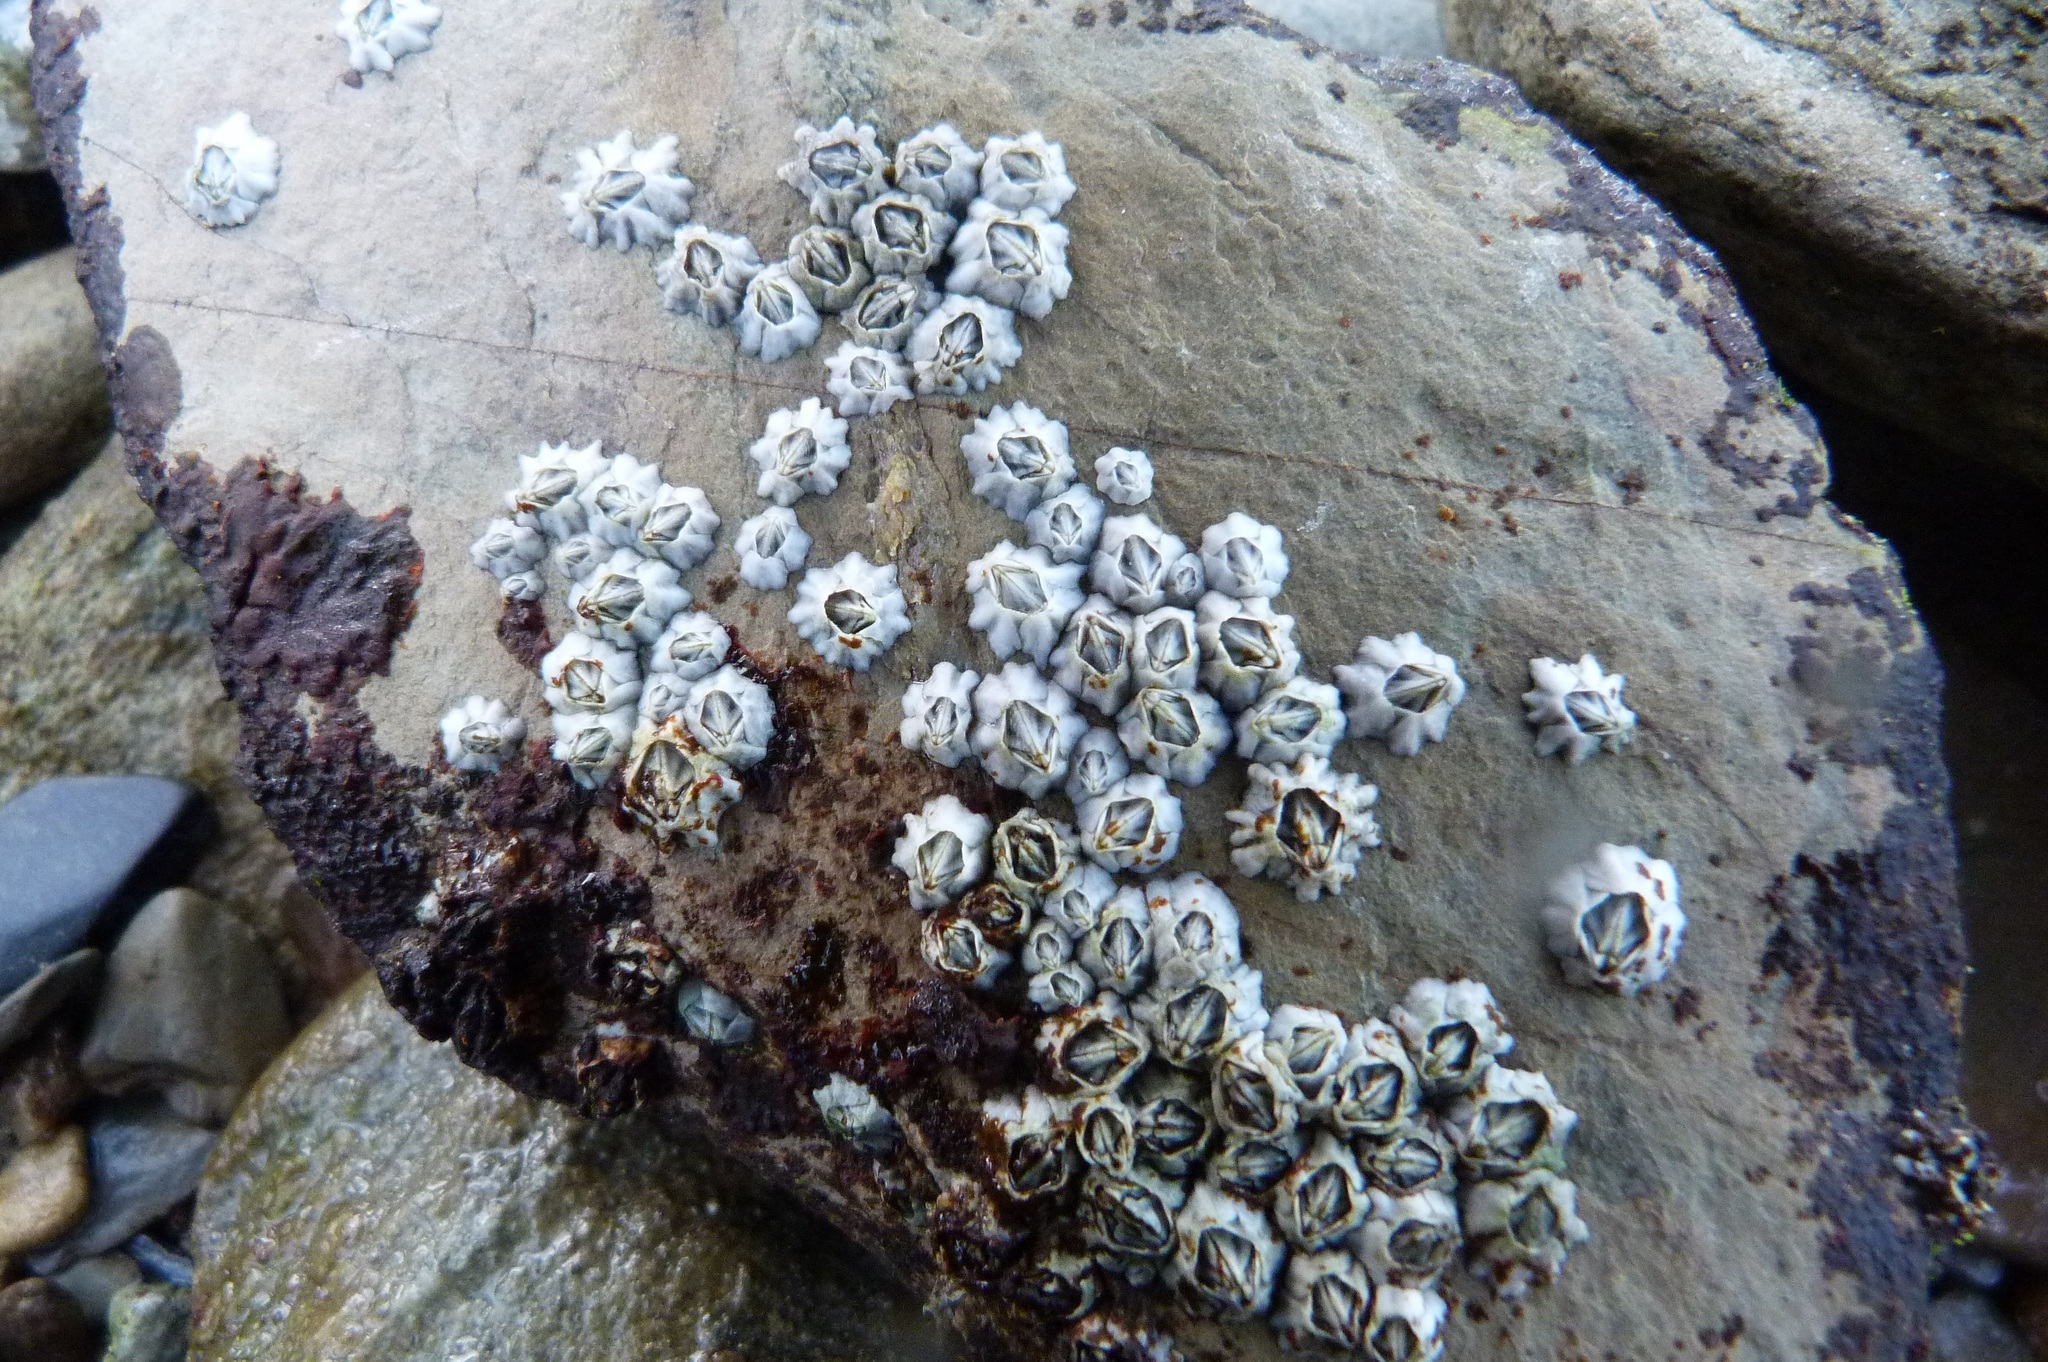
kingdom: Animalia
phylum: Arthropoda
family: Elminiidae
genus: Austrominius
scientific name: Austrominius modestus
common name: Australasian barnacle
